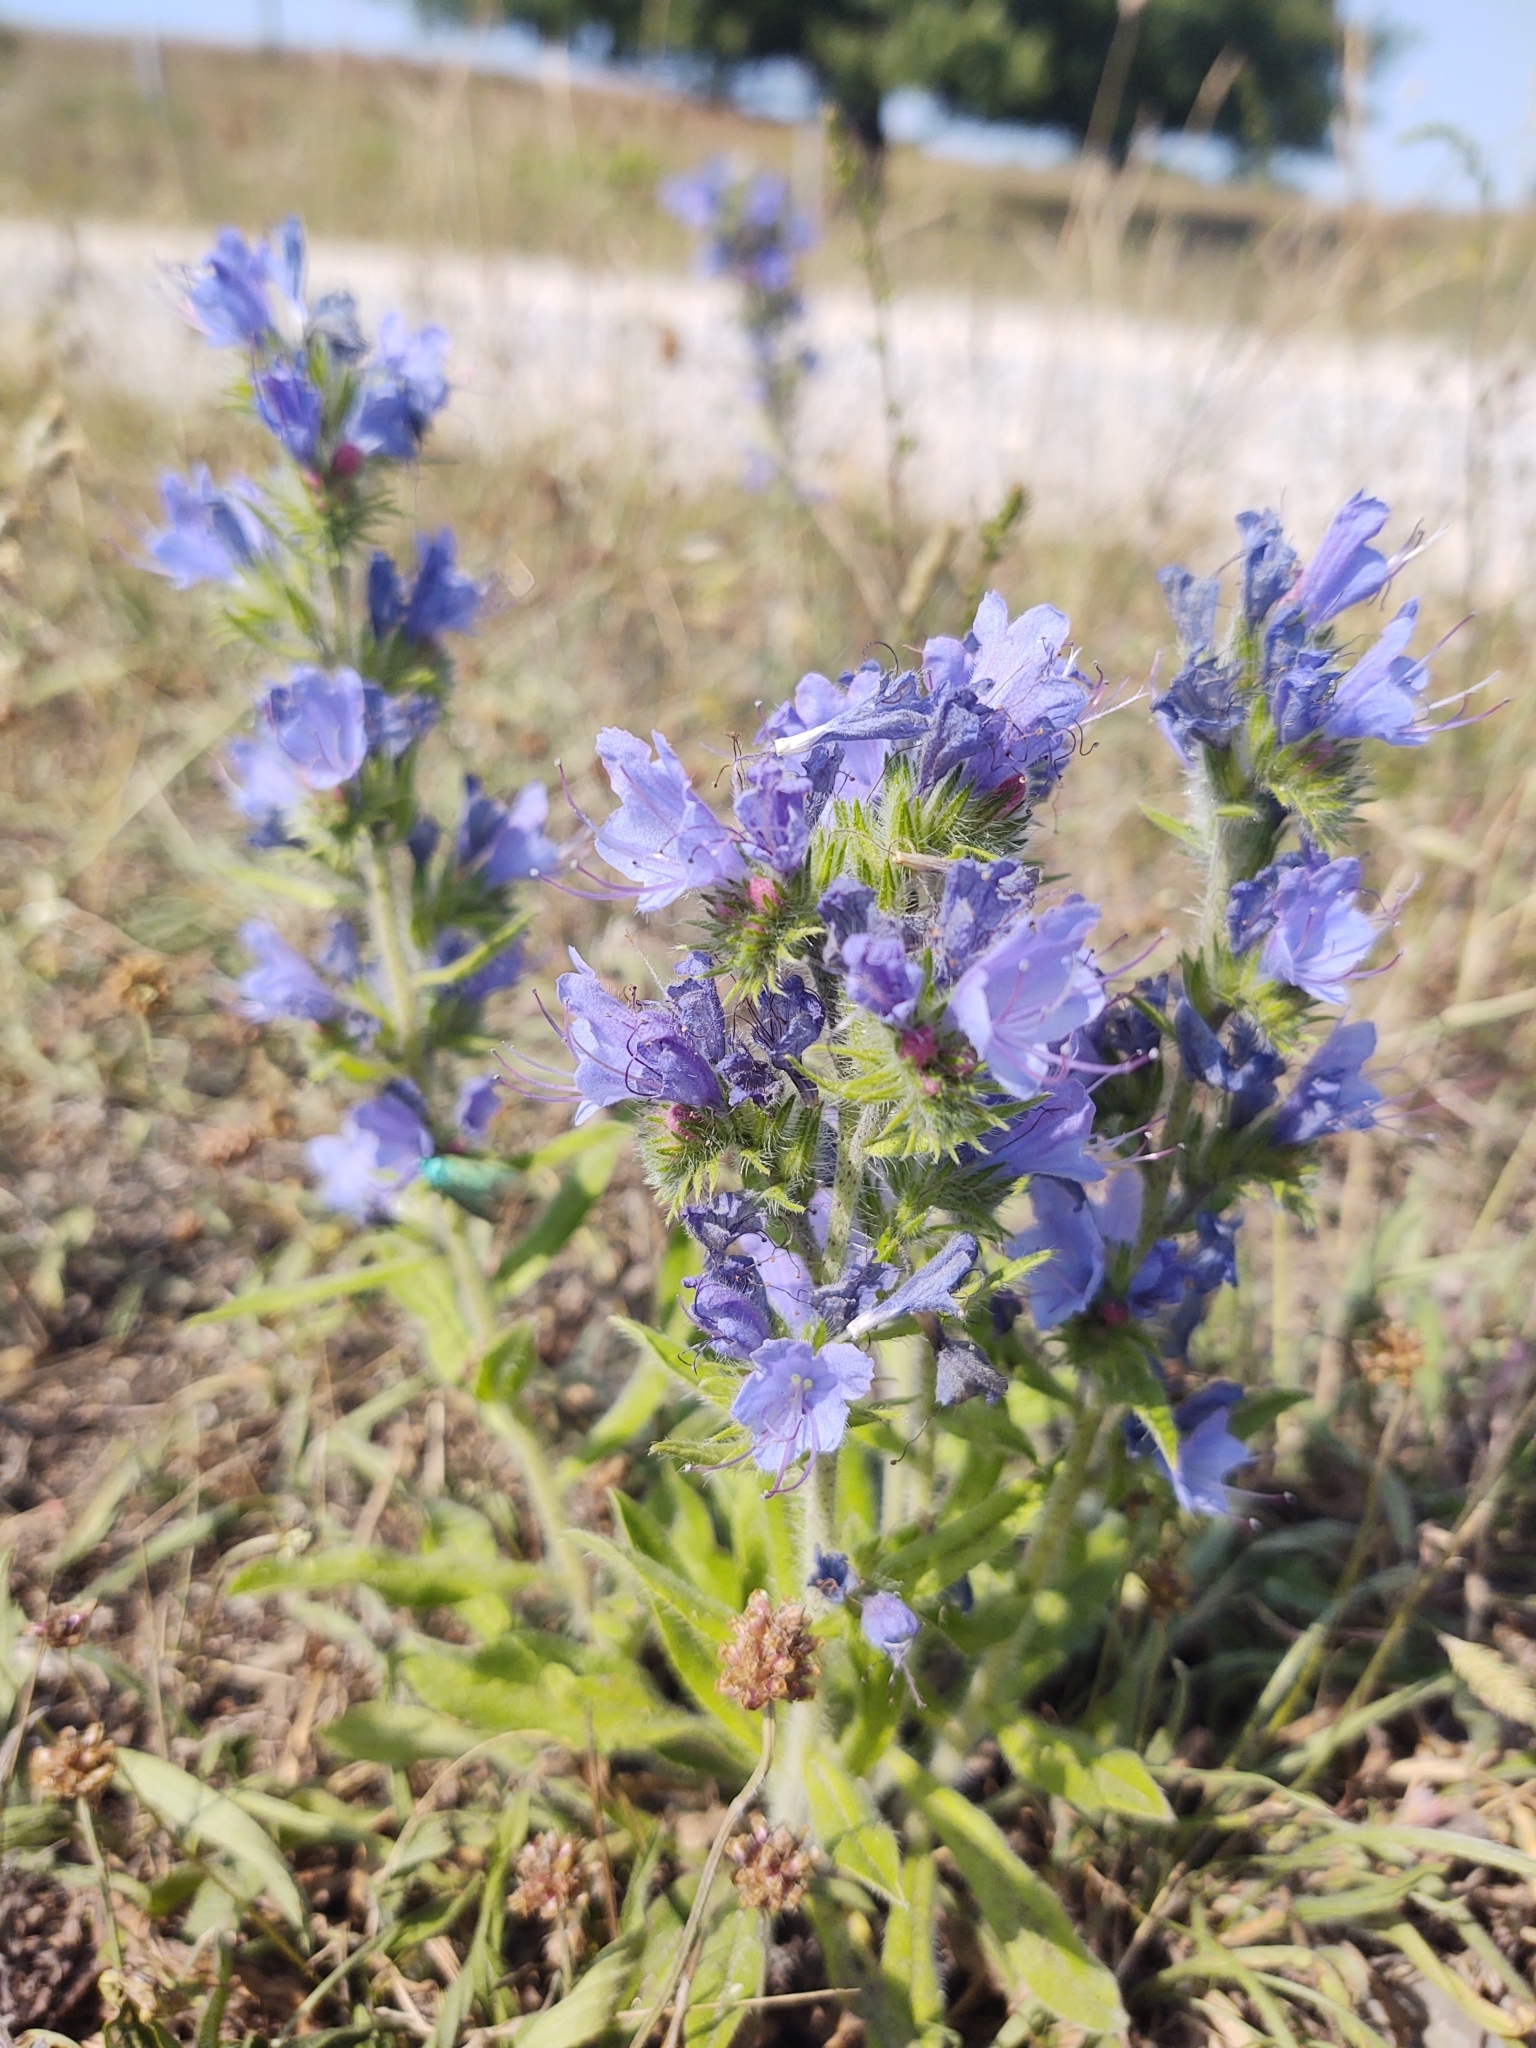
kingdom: Plantae
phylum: Tracheophyta
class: Magnoliopsida
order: Boraginales
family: Boraginaceae
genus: Echium
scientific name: Echium vulgare
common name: Common viper's bugloss
